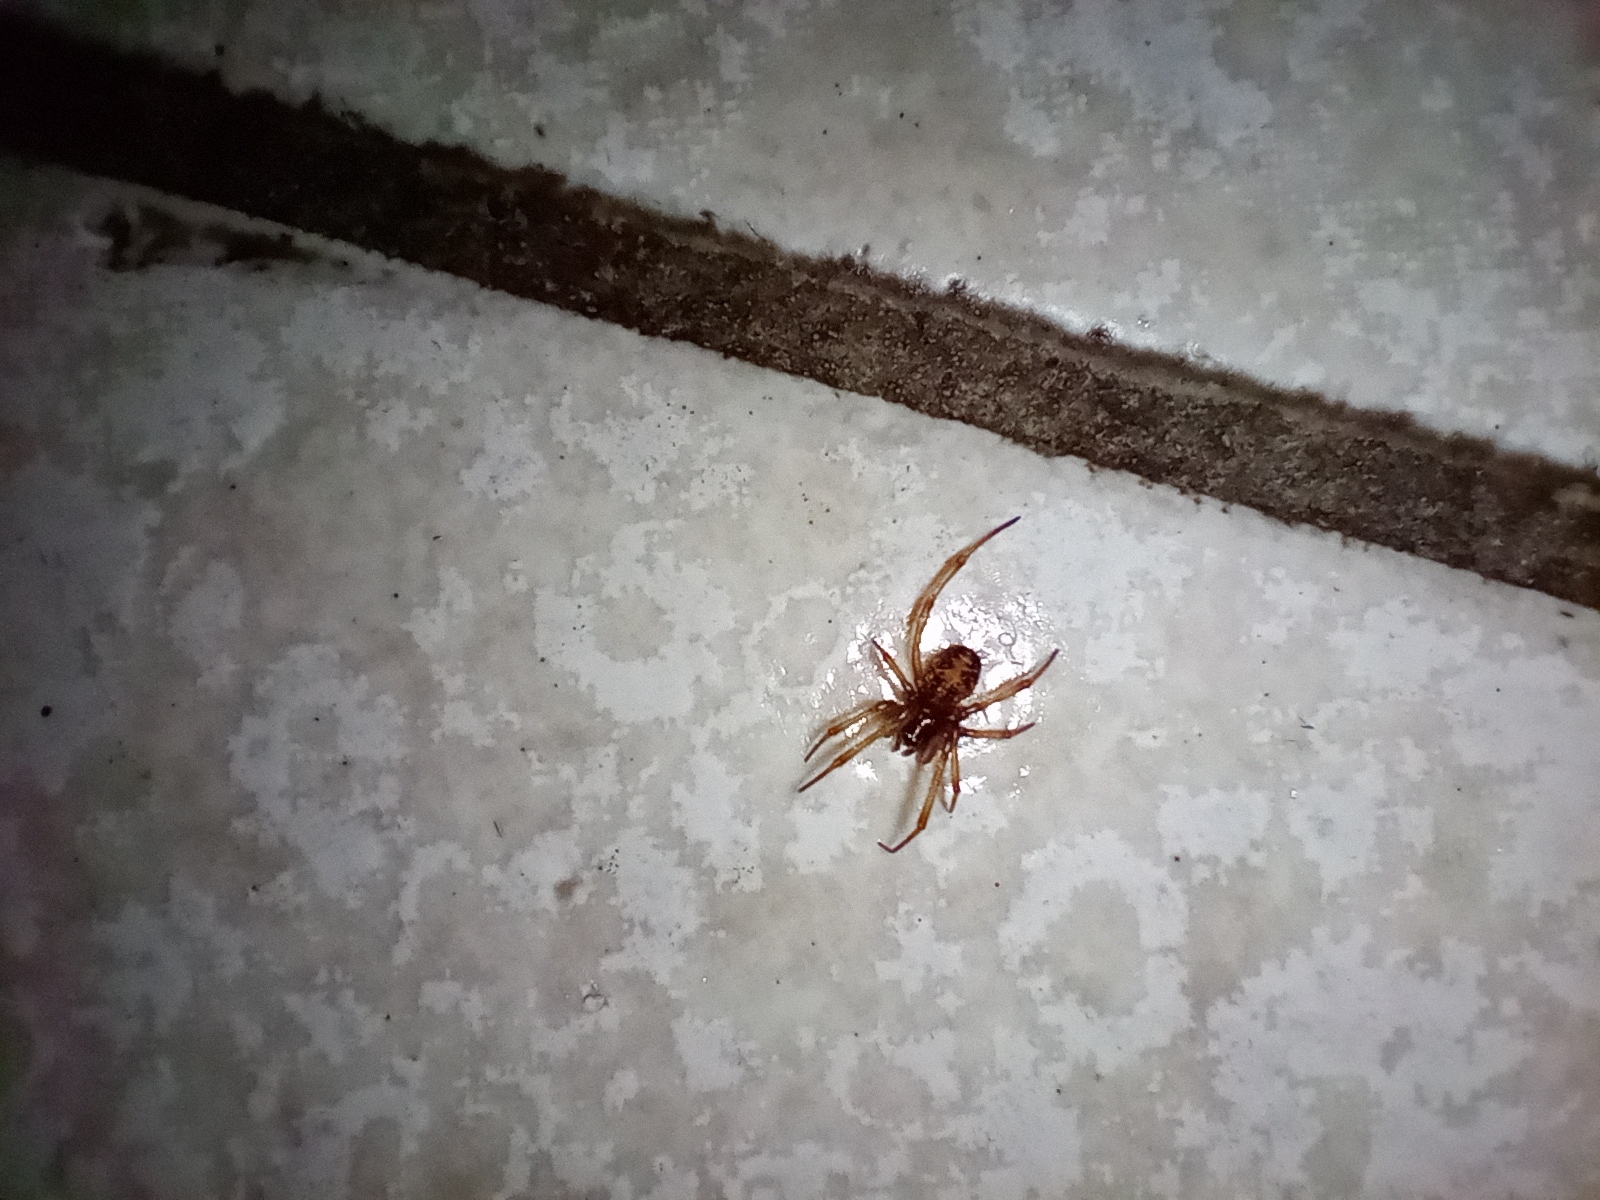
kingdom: Animalia
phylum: Arthropoda
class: Arachnida
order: Araneae
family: Theridiidae
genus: Steatoda
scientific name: Steatoda triangulosa
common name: Triangulate bud spider
